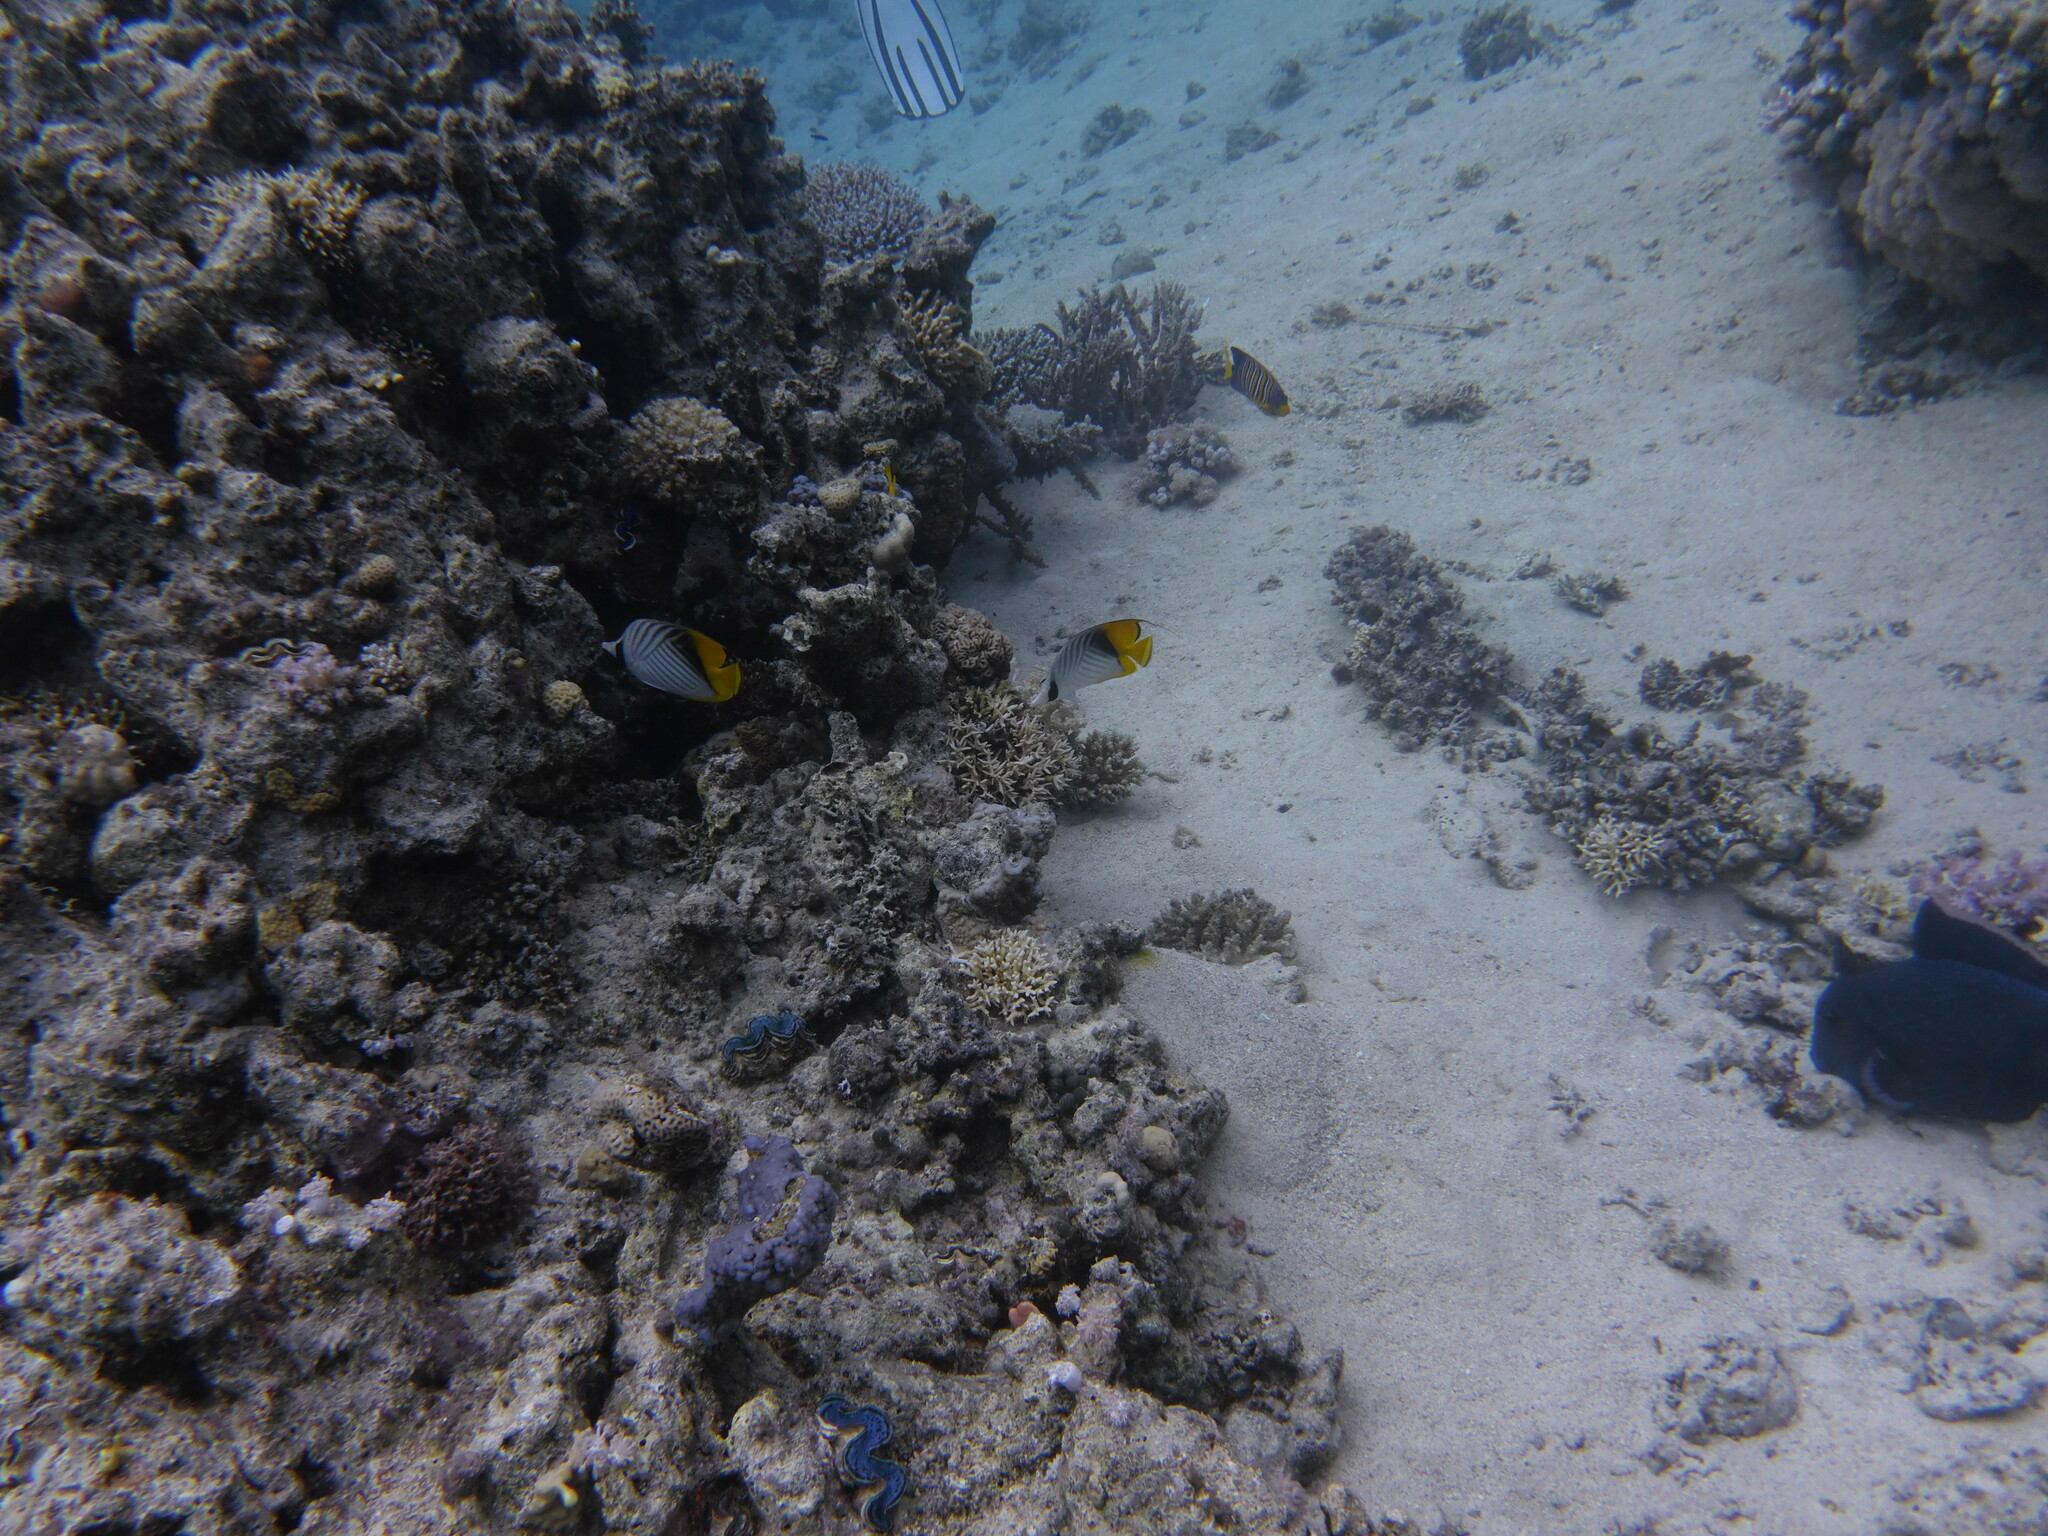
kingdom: Animalia
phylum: Chordata
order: Perciformes
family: Chaetodontidae
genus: Chaetodon
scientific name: Chaetodon auriga
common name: Threadfin butterflyfish
